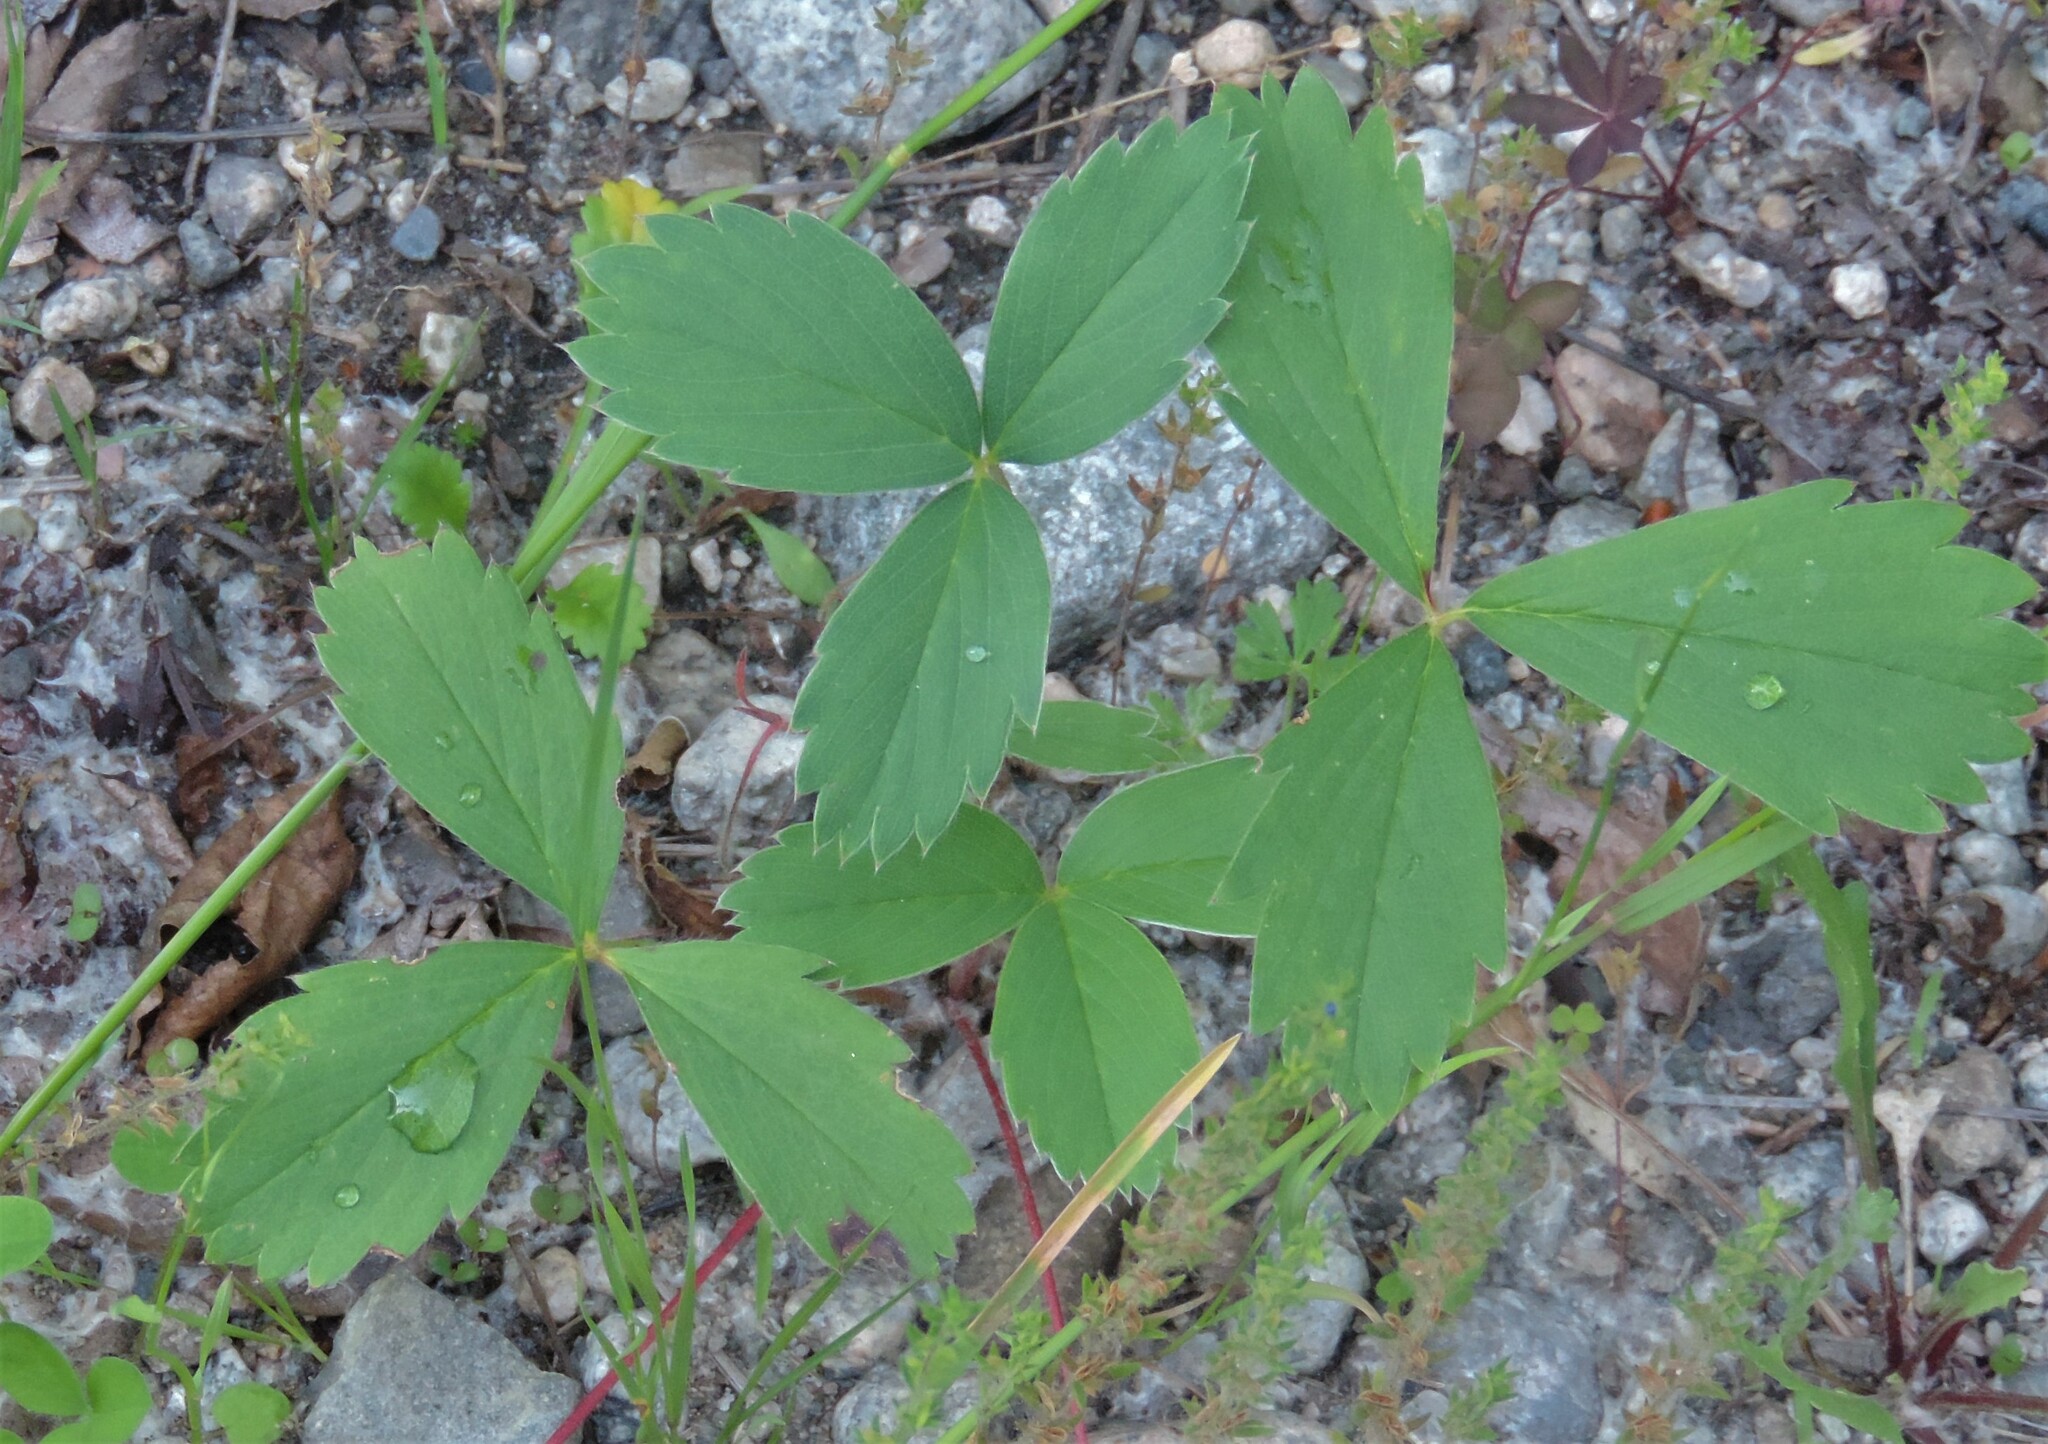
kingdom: Plantae
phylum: Tracheophyta
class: Magnoliopsida
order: Rosales
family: Rosaceae
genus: Fragaria
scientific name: Fragaria virginiana
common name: Thickleaved wild strawberry
